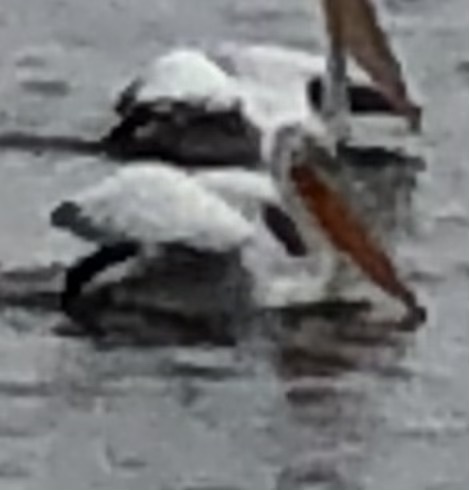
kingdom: Animalia
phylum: Chordata
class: Aves
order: Pelecaniformes
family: Pelecanidae
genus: Pelecanus
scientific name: Pelecanus crispus
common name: Dalmatian pelican
